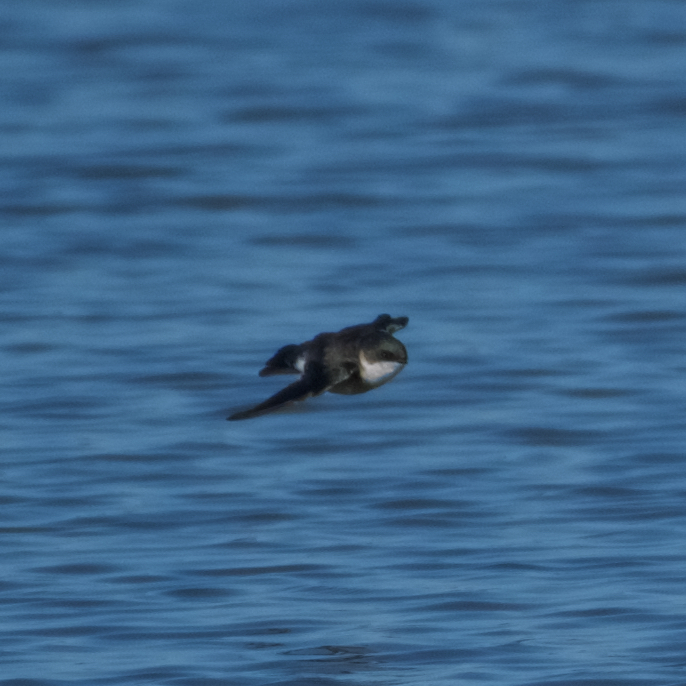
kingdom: Animalia
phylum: Chordata
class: Aves
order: Passeriformes
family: Hirundinidae
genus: Tachycineta
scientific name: Tachycineta bicolor
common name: Tree swallow
